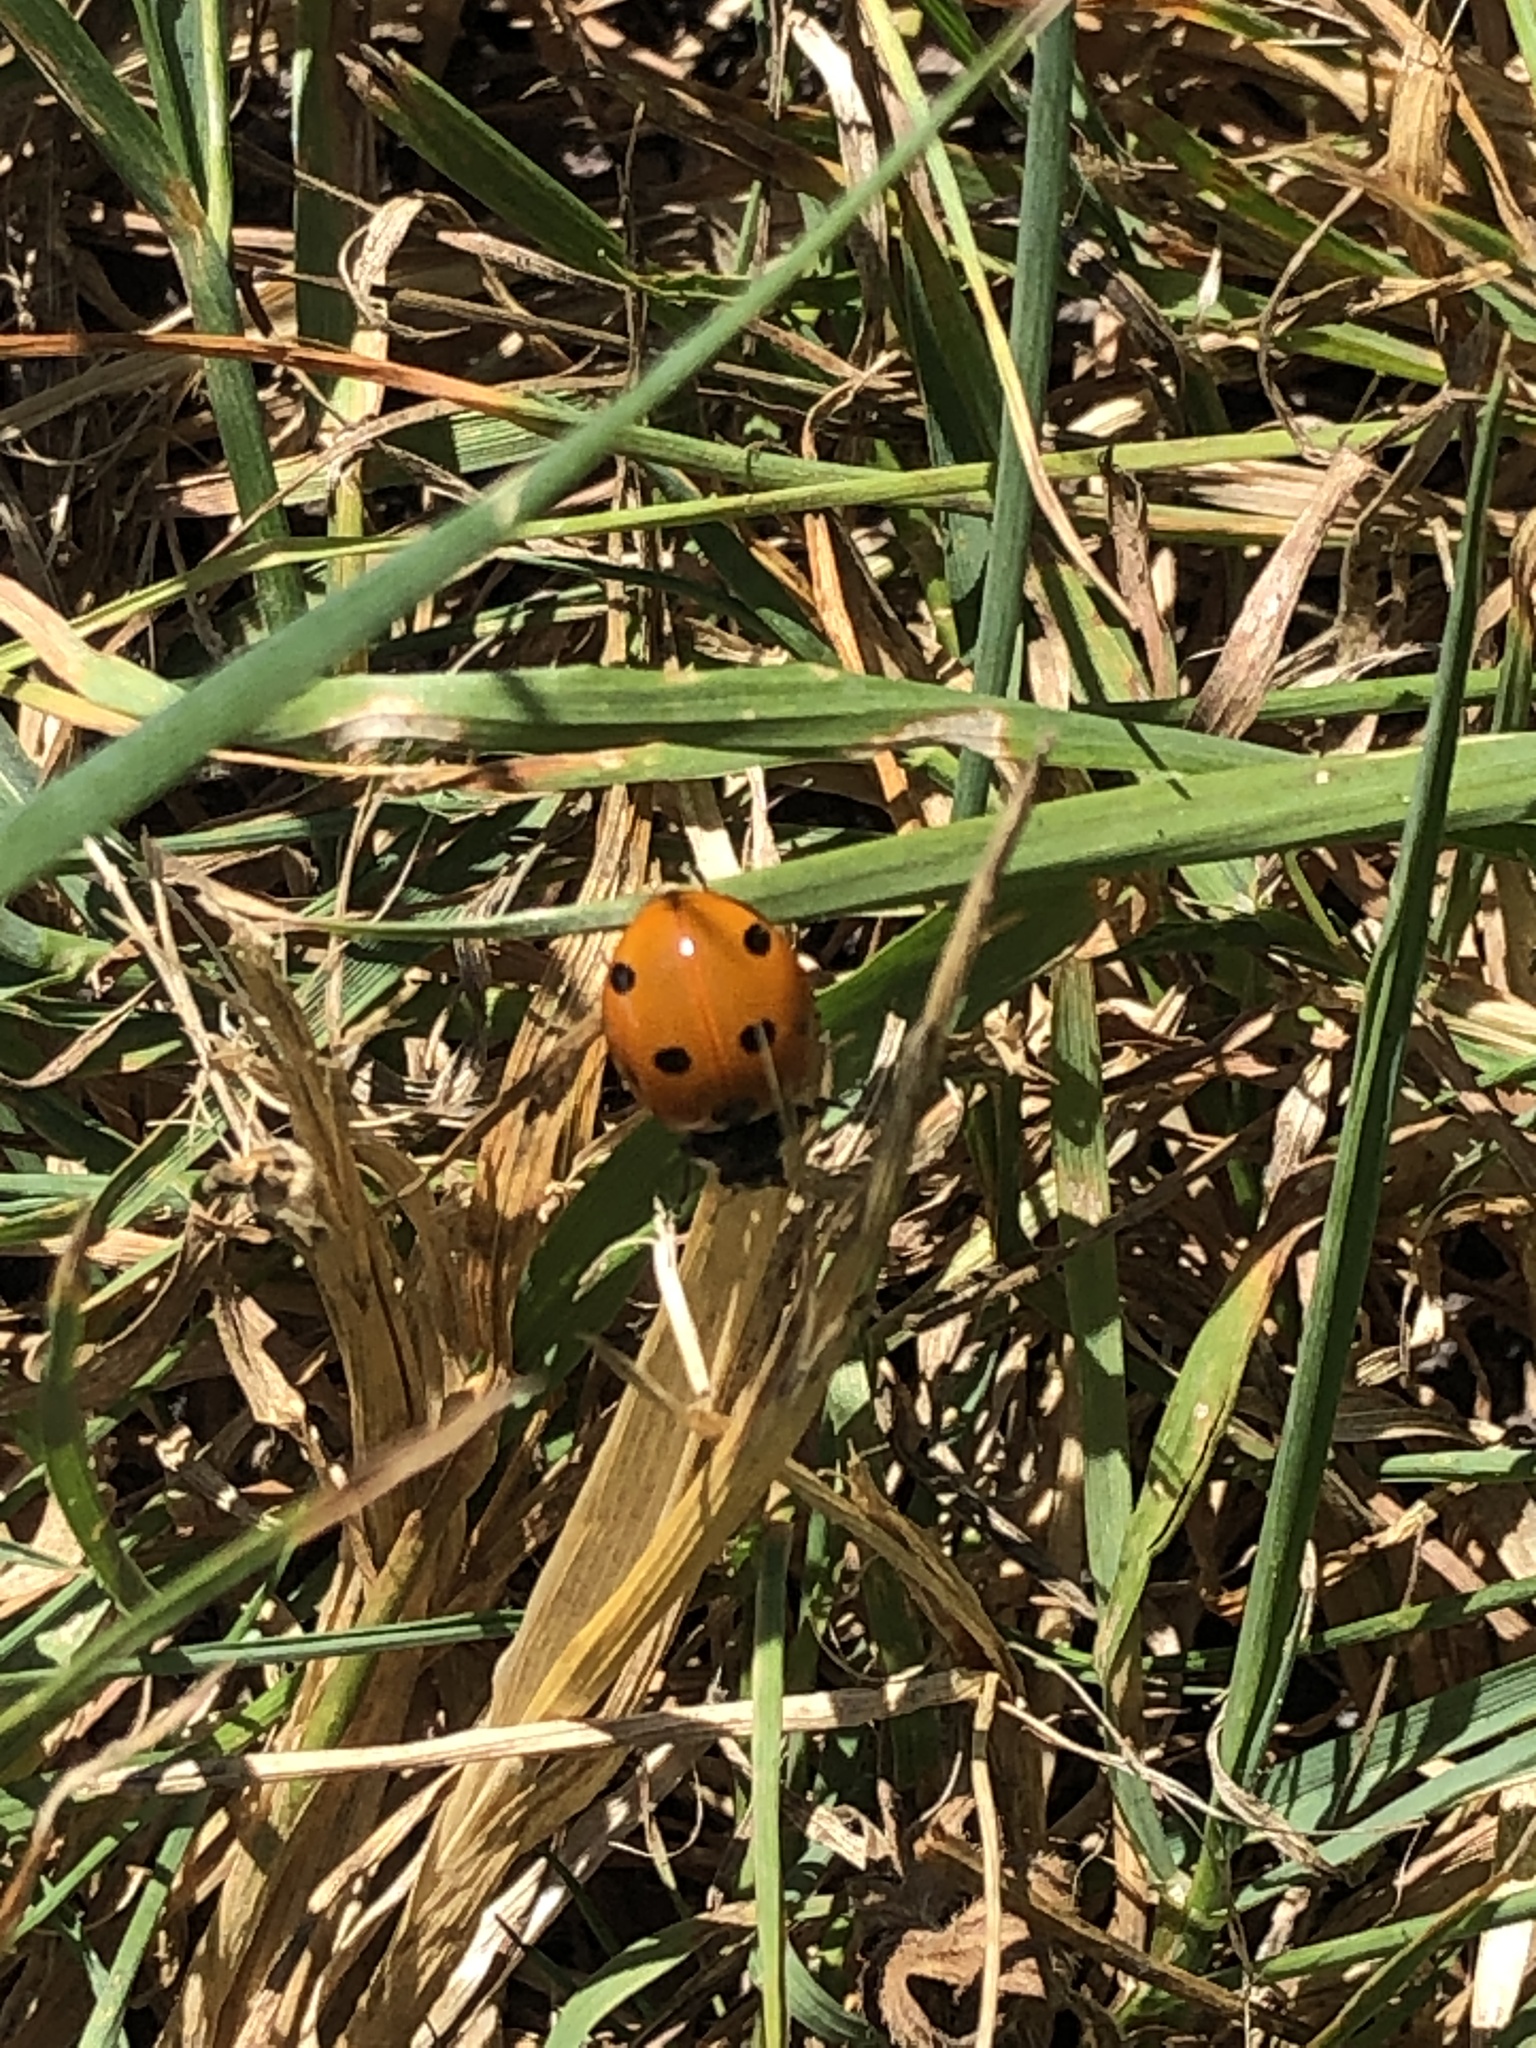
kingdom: Animalia
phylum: Arthropoda
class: Insecta
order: Coleoptera
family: Coccinellidae
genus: Coccinella
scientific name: Coccinella septempunctata
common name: Sevenspotted lady beetle
